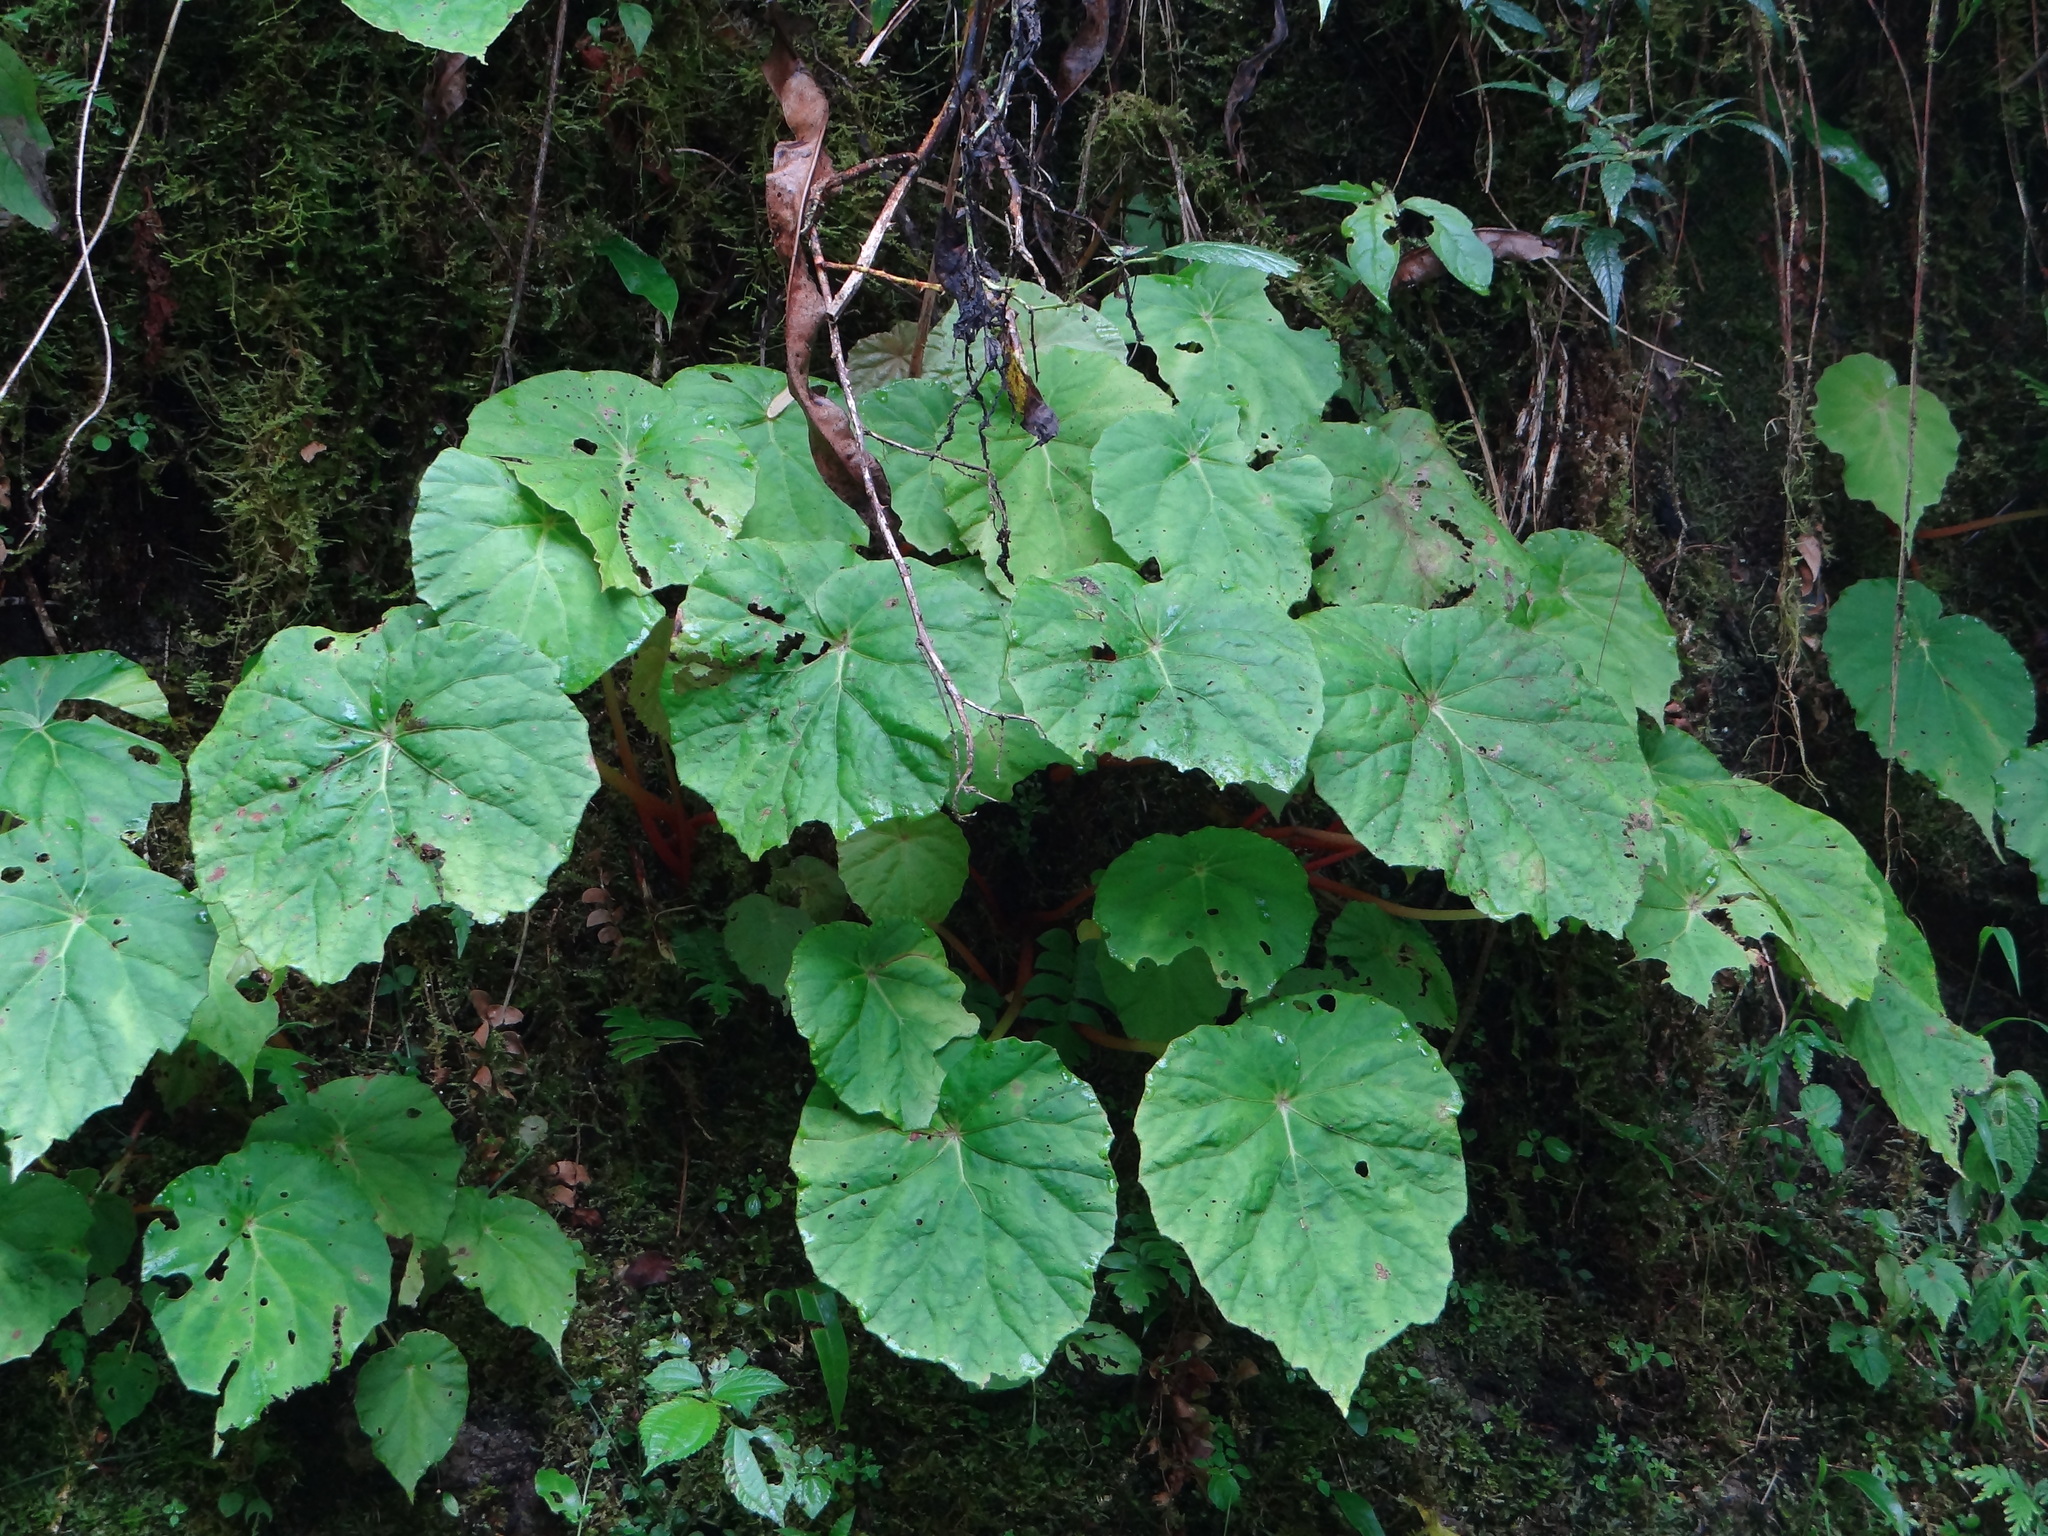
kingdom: Plantae
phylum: Tracheophyta
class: Magnoliopsida
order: Cucurbitales
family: Begoniaceae
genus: Begonia
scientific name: Begonia chitoensis
